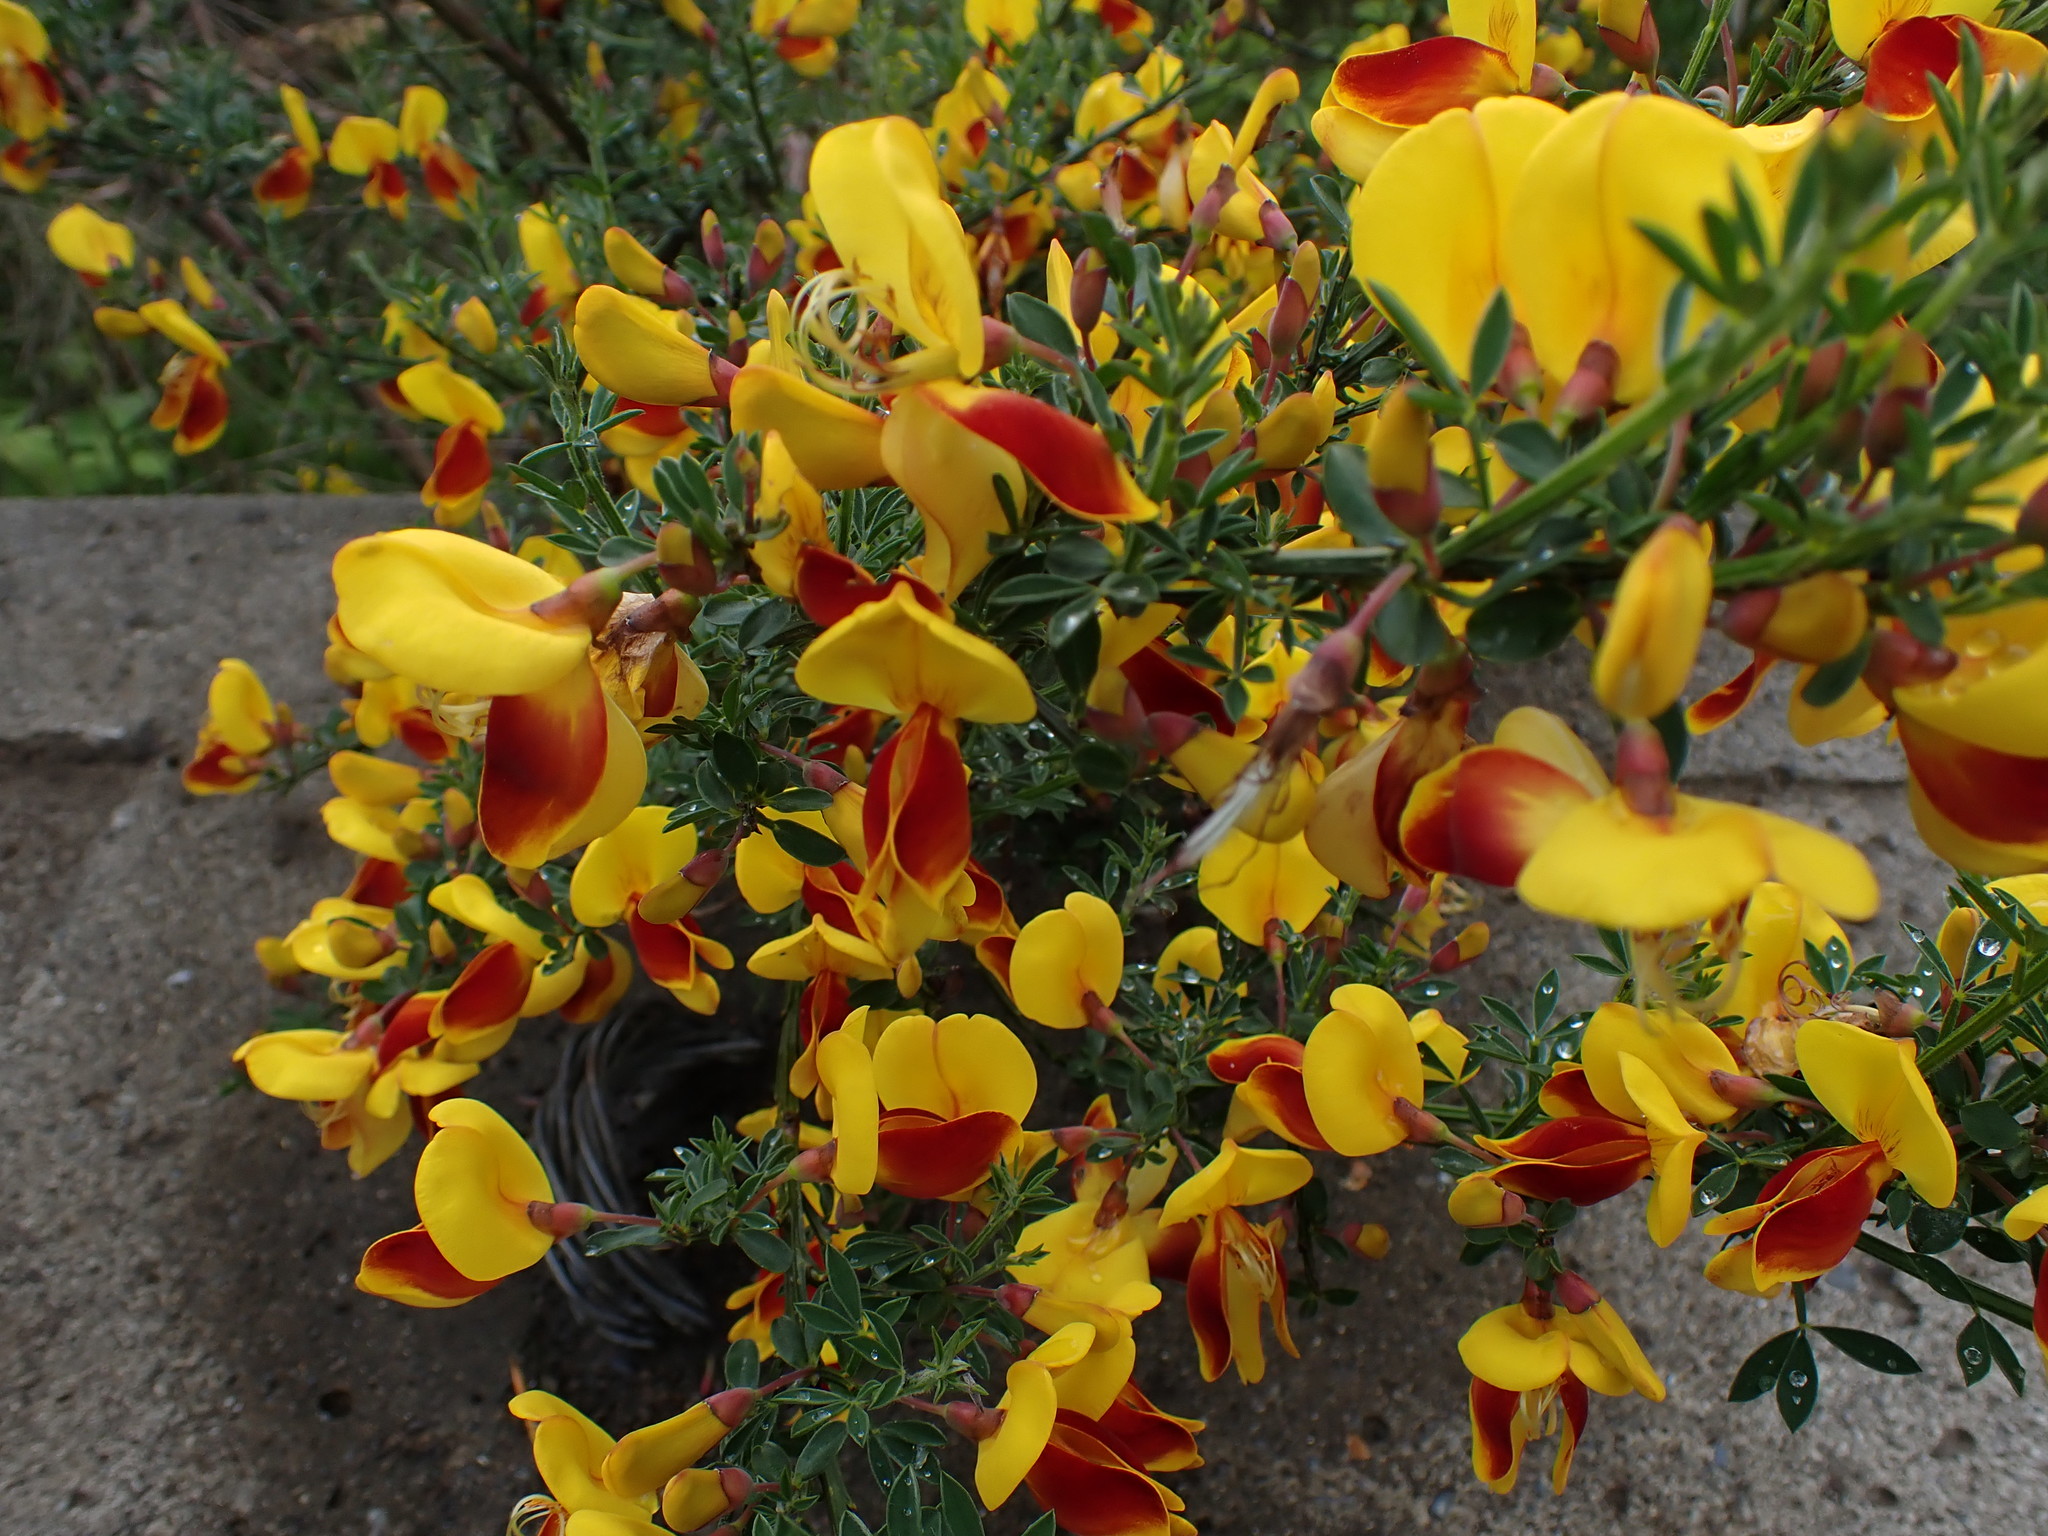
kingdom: Plantae
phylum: Tracheophyta
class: Magnoliopsida
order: Fabales
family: Fabaceae
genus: Cytisus
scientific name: Cytisus scoparius
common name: Scotch broom
